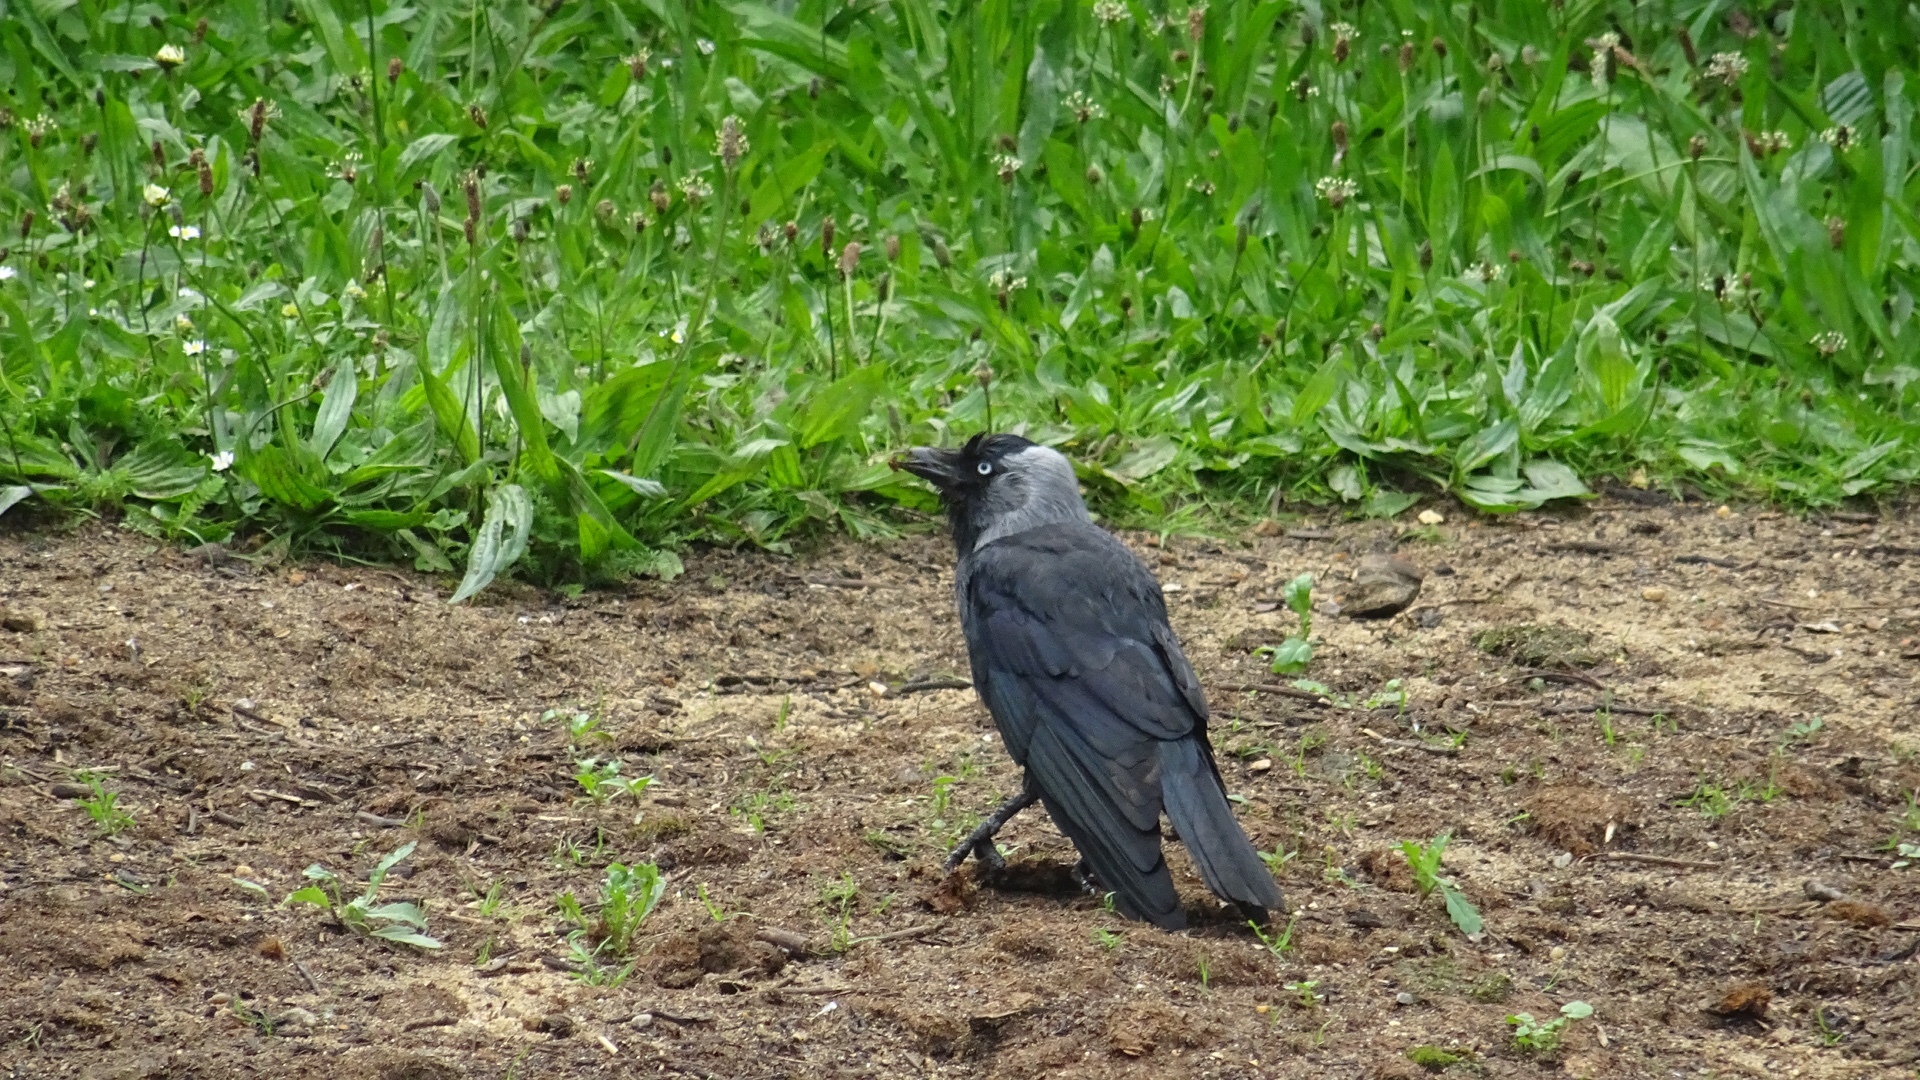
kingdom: Animalia
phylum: Chordata
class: Aves
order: Passeriformes
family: Corvidae
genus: Coloeus
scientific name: Coloeus monedula
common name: Western jackdaw
